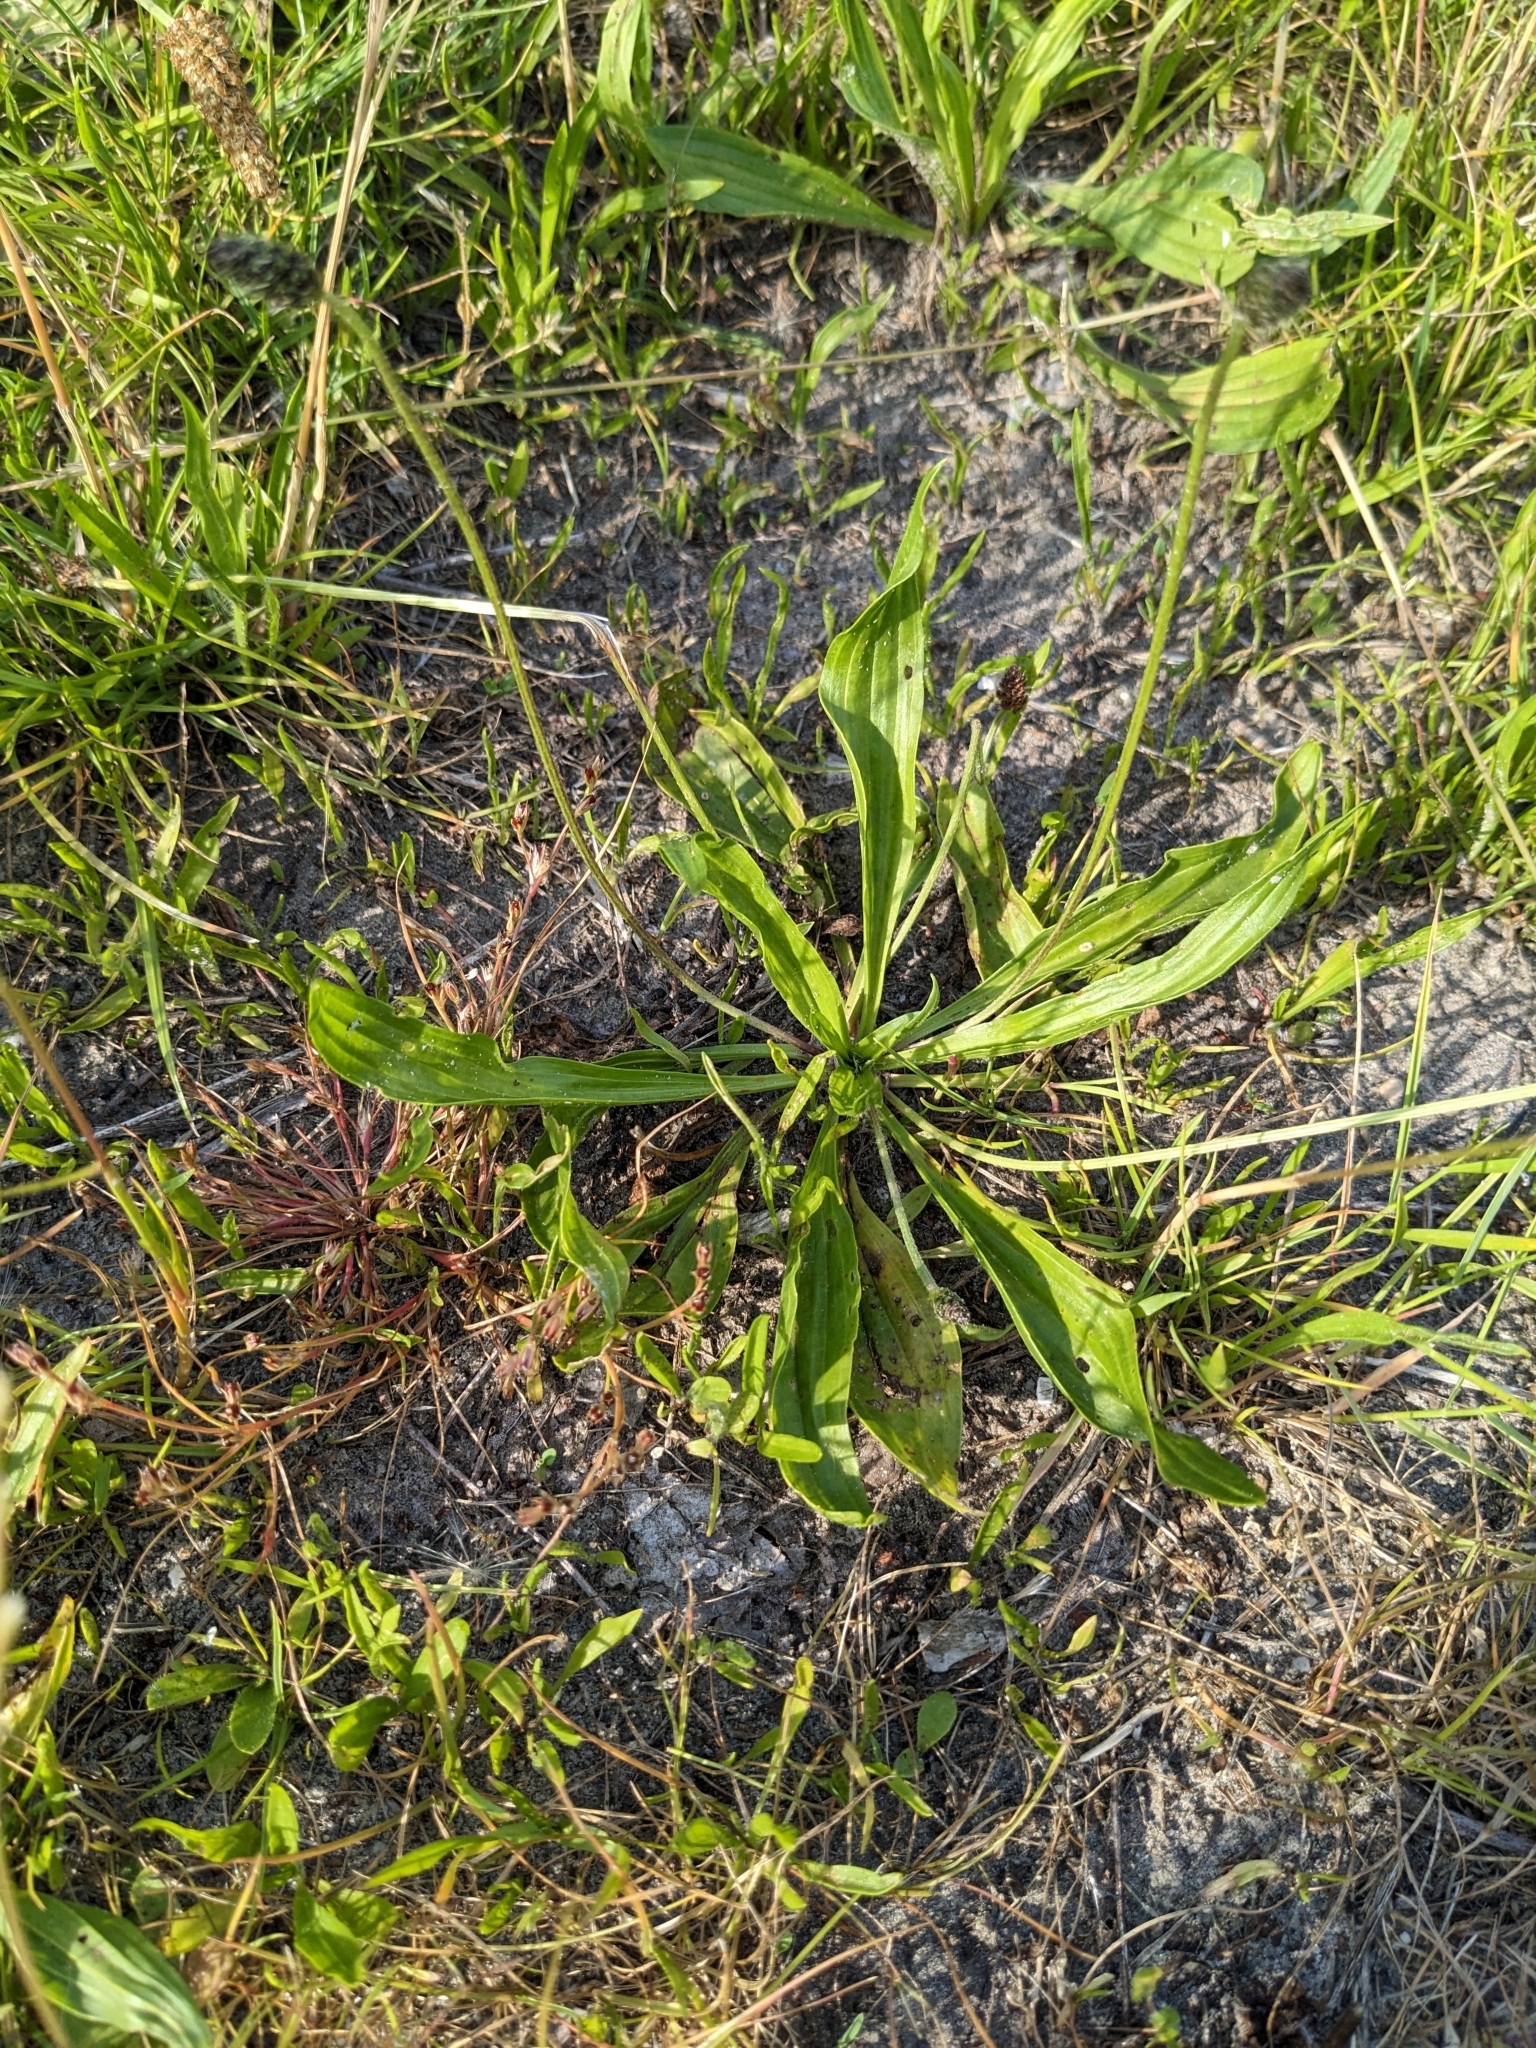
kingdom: Plantae
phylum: Tracheophyta
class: Magnoliopsida
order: Lamiales
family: Plantaginaceae
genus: Plantago
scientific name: Plantago lanceolata
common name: Ribwort plantain
